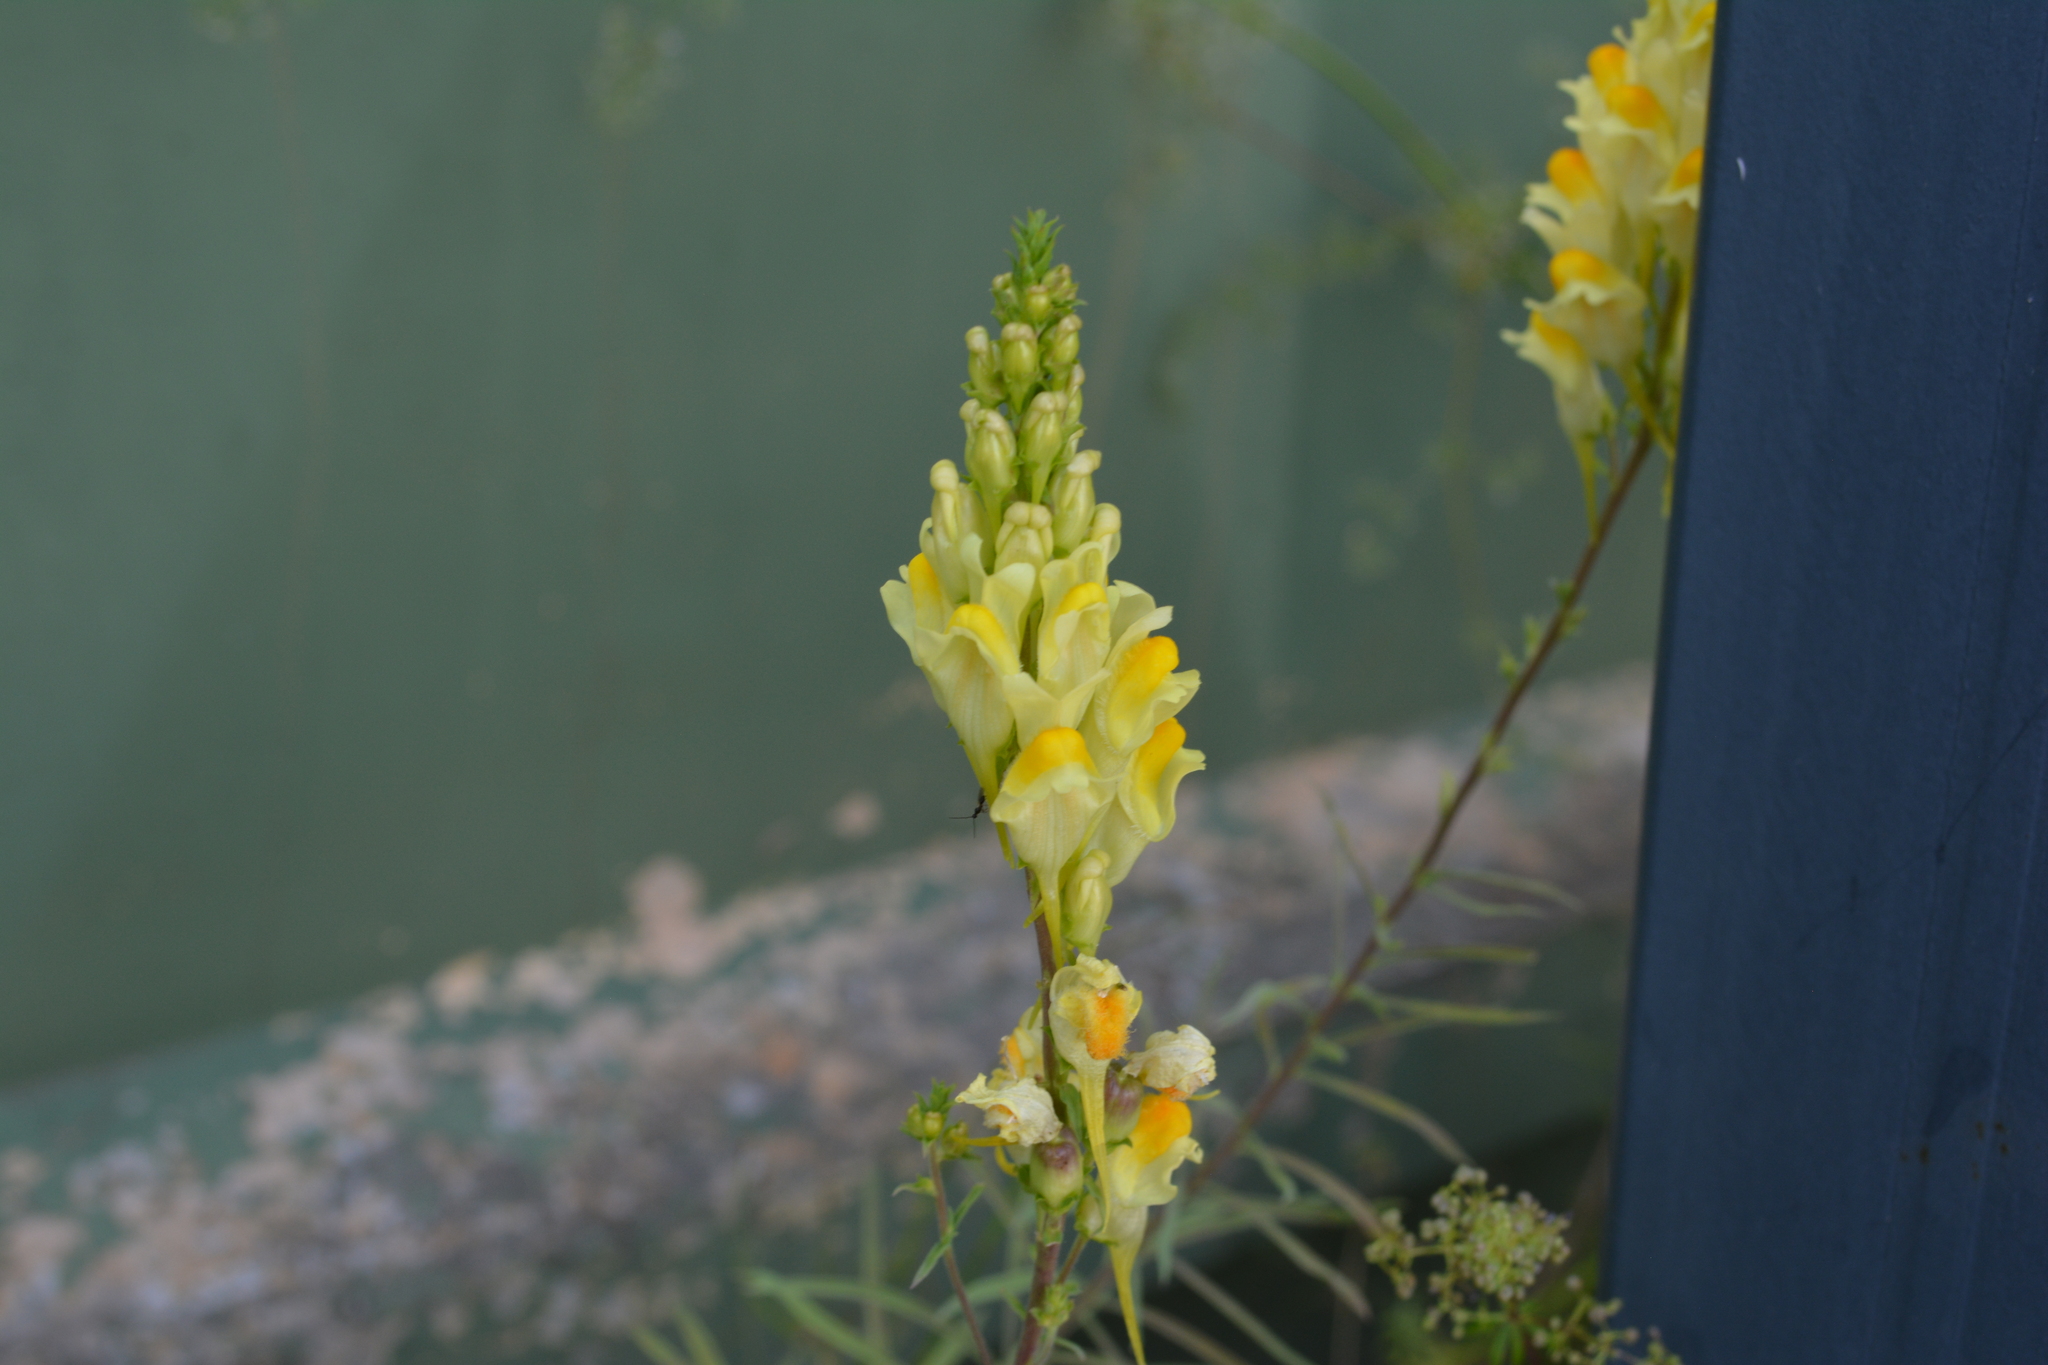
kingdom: Plantae
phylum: Tracheophyta
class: Magnoliopsida
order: Lamiales
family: Plantaginaceae
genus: Linaria
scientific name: Linaria vulgaris
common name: Butter and eggs
